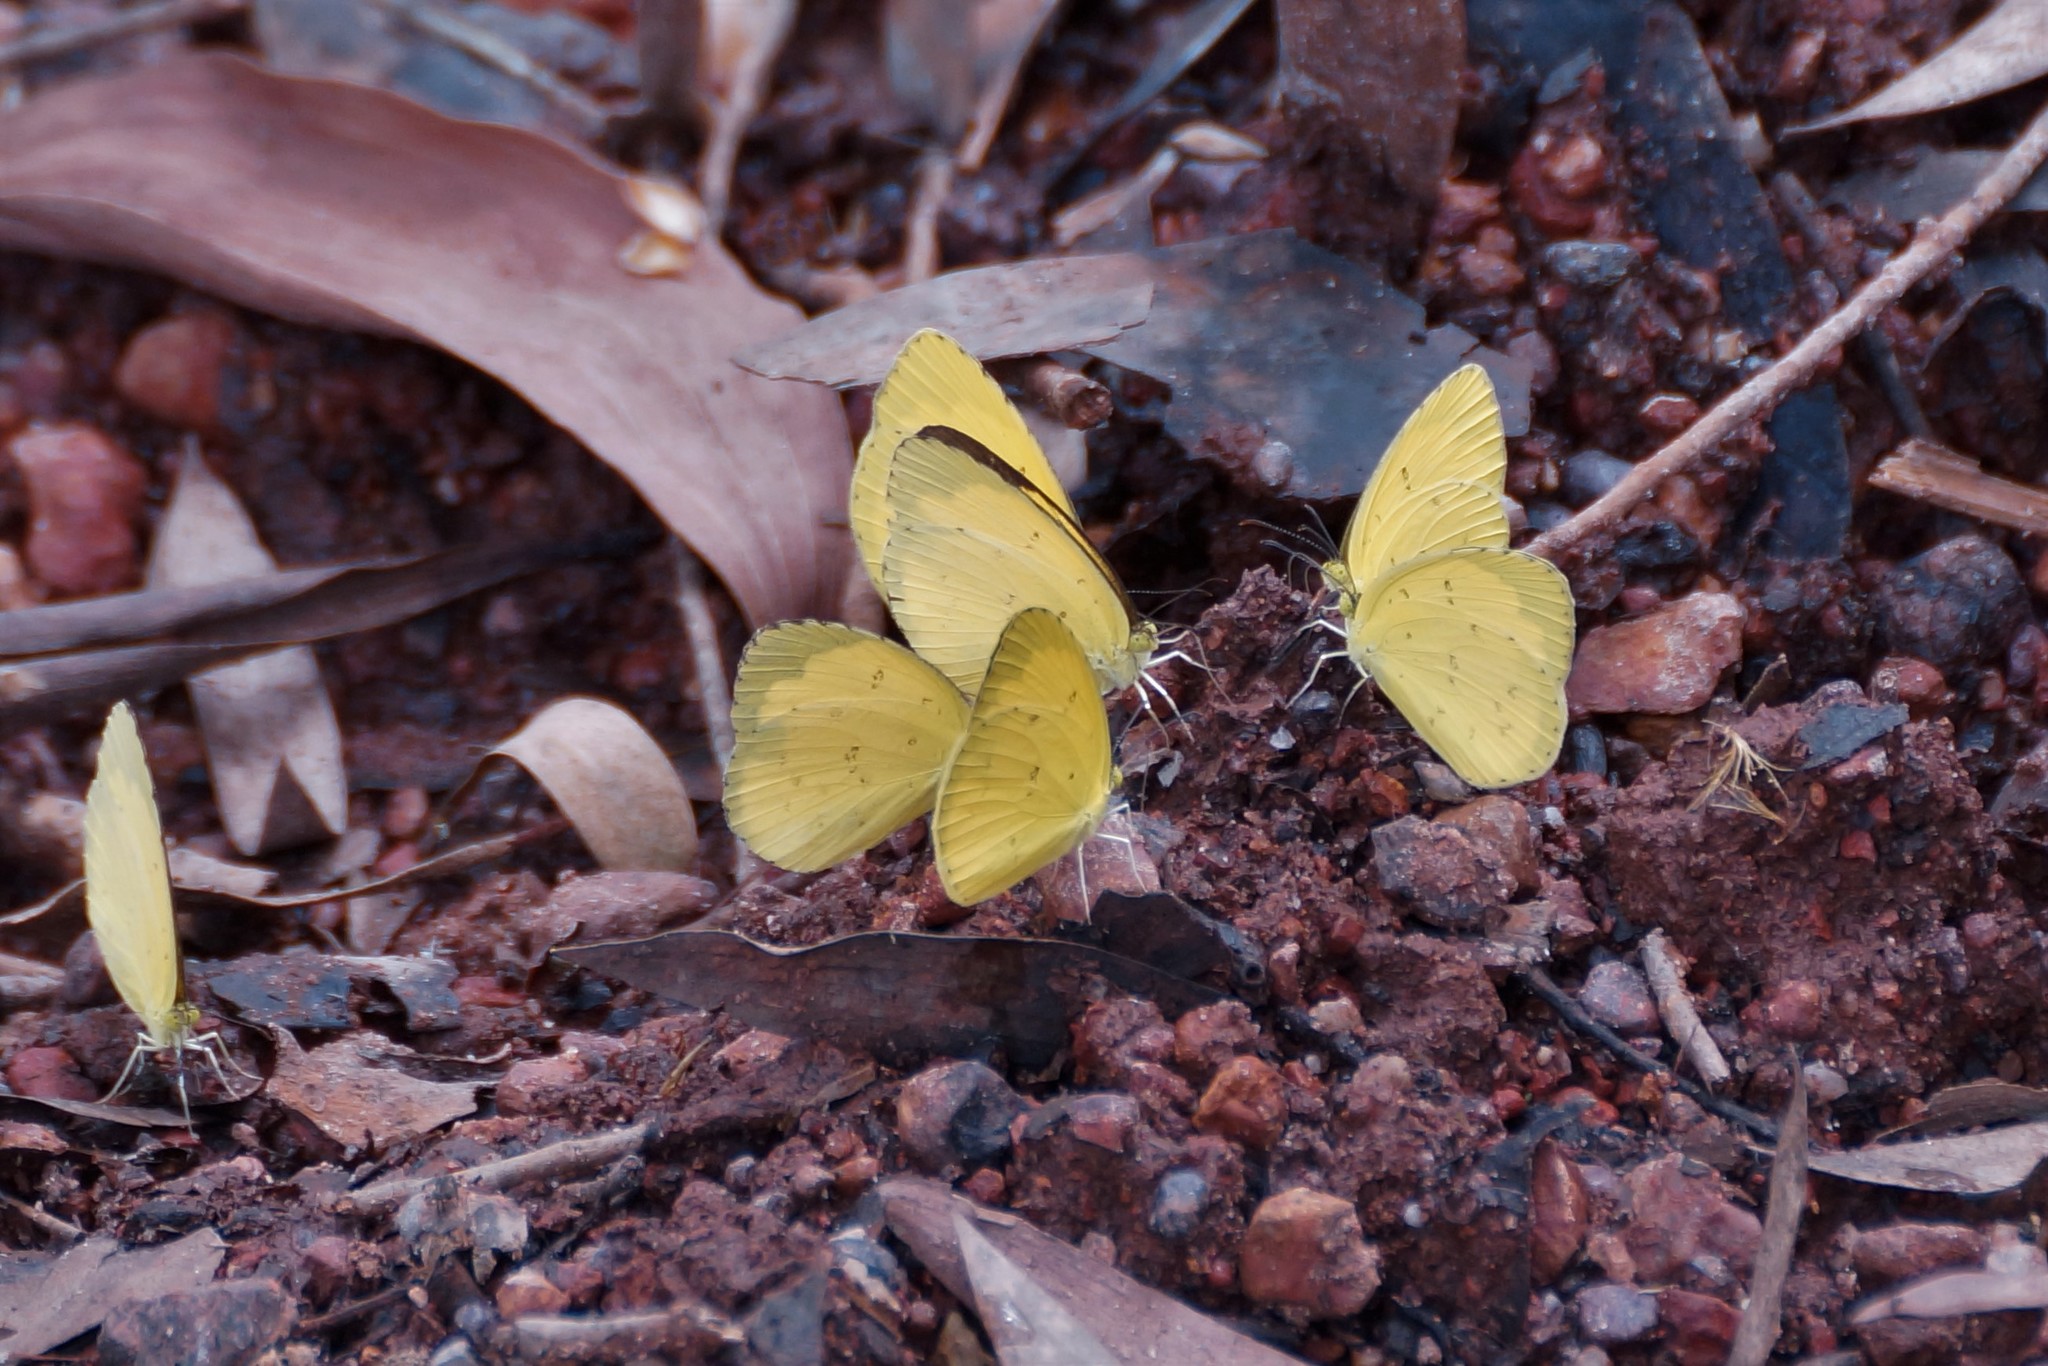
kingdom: Animalia
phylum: Arthropoda
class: Insecta
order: Lepidoptera
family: Pieridae
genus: Eurema
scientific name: Eurema hecabe
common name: Pale grass yellow
